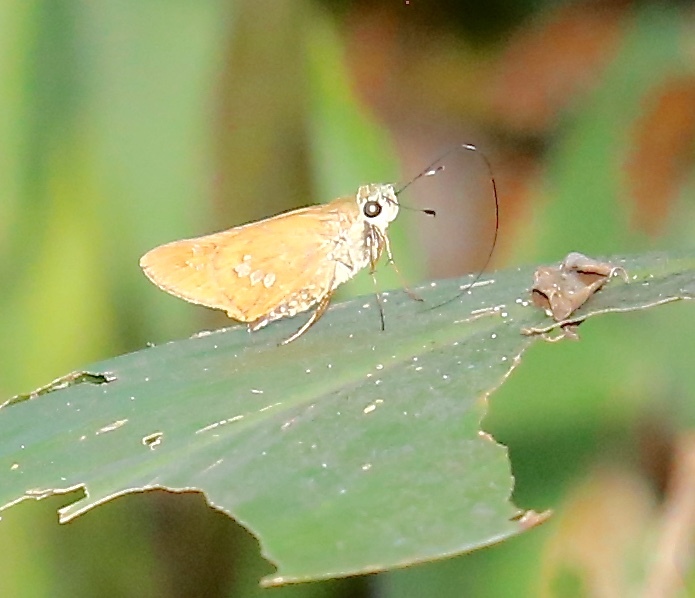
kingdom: Animalia
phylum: Arthropoda
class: Insecta
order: Lepidoptera
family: Hesperiidae
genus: Calpodes
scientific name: Calpodes ethlius
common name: Brazilian skipper
